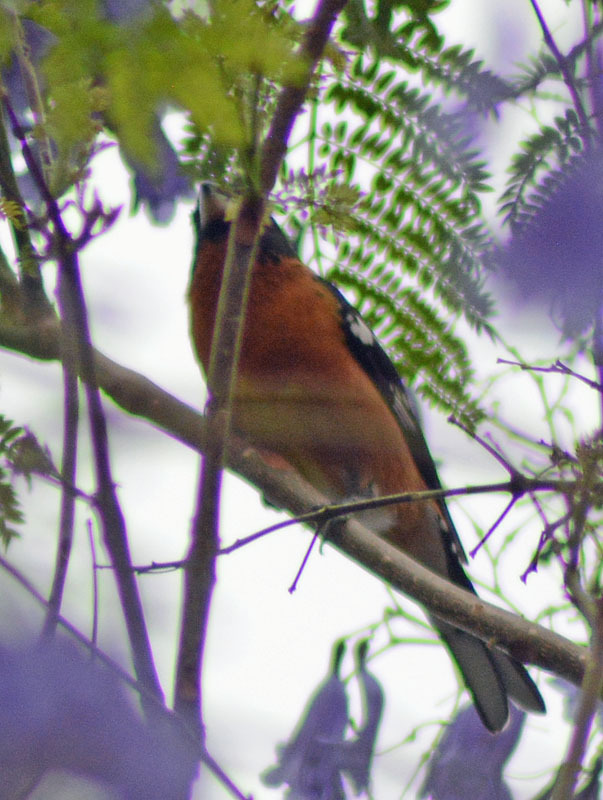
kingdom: Animalia
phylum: Chordata
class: Aves
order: Passeriformes
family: Cardinalidae
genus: Pheucticus
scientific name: Pheucticus melanocephalus
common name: Black-headed grosbeak
